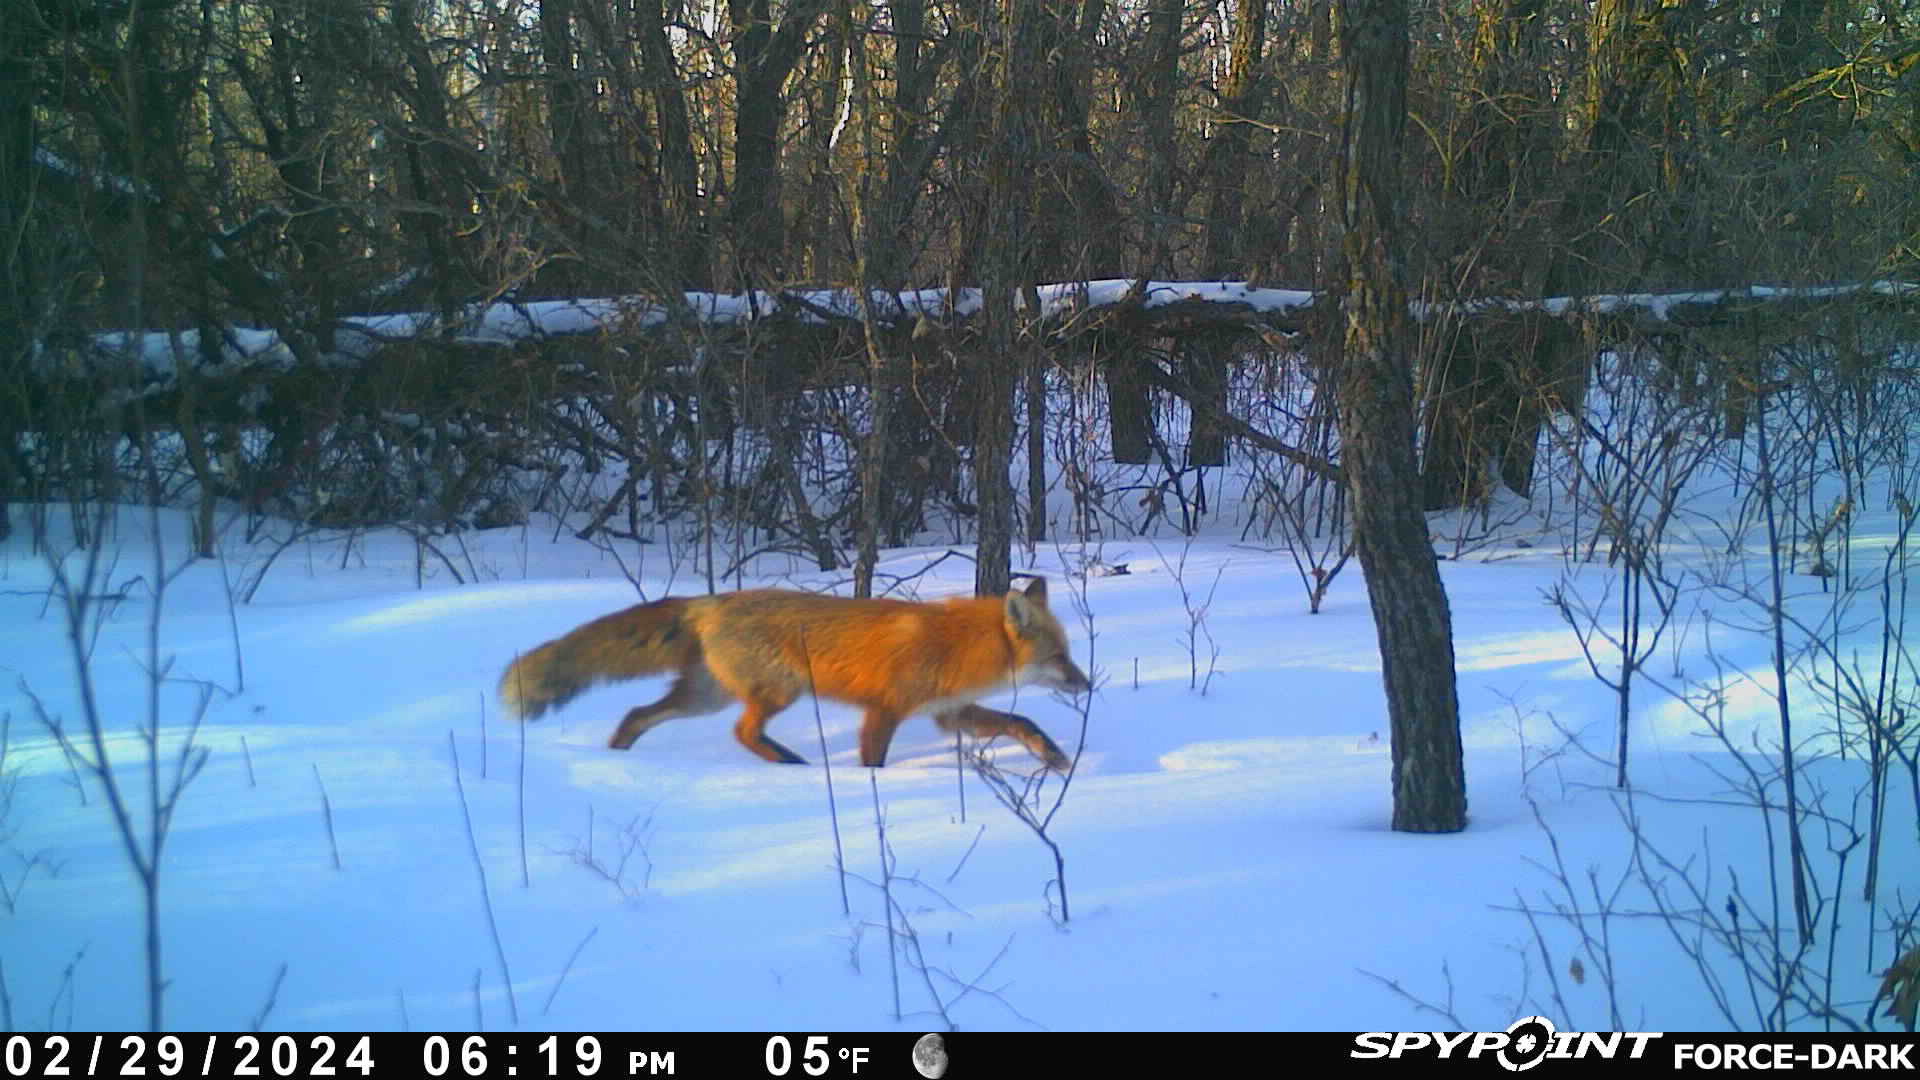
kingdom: Animalia
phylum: Chordata
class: Mammalia
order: Carnivora
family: Canidae
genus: Vulpes
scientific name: Vulpes vulpes
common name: Red fox
